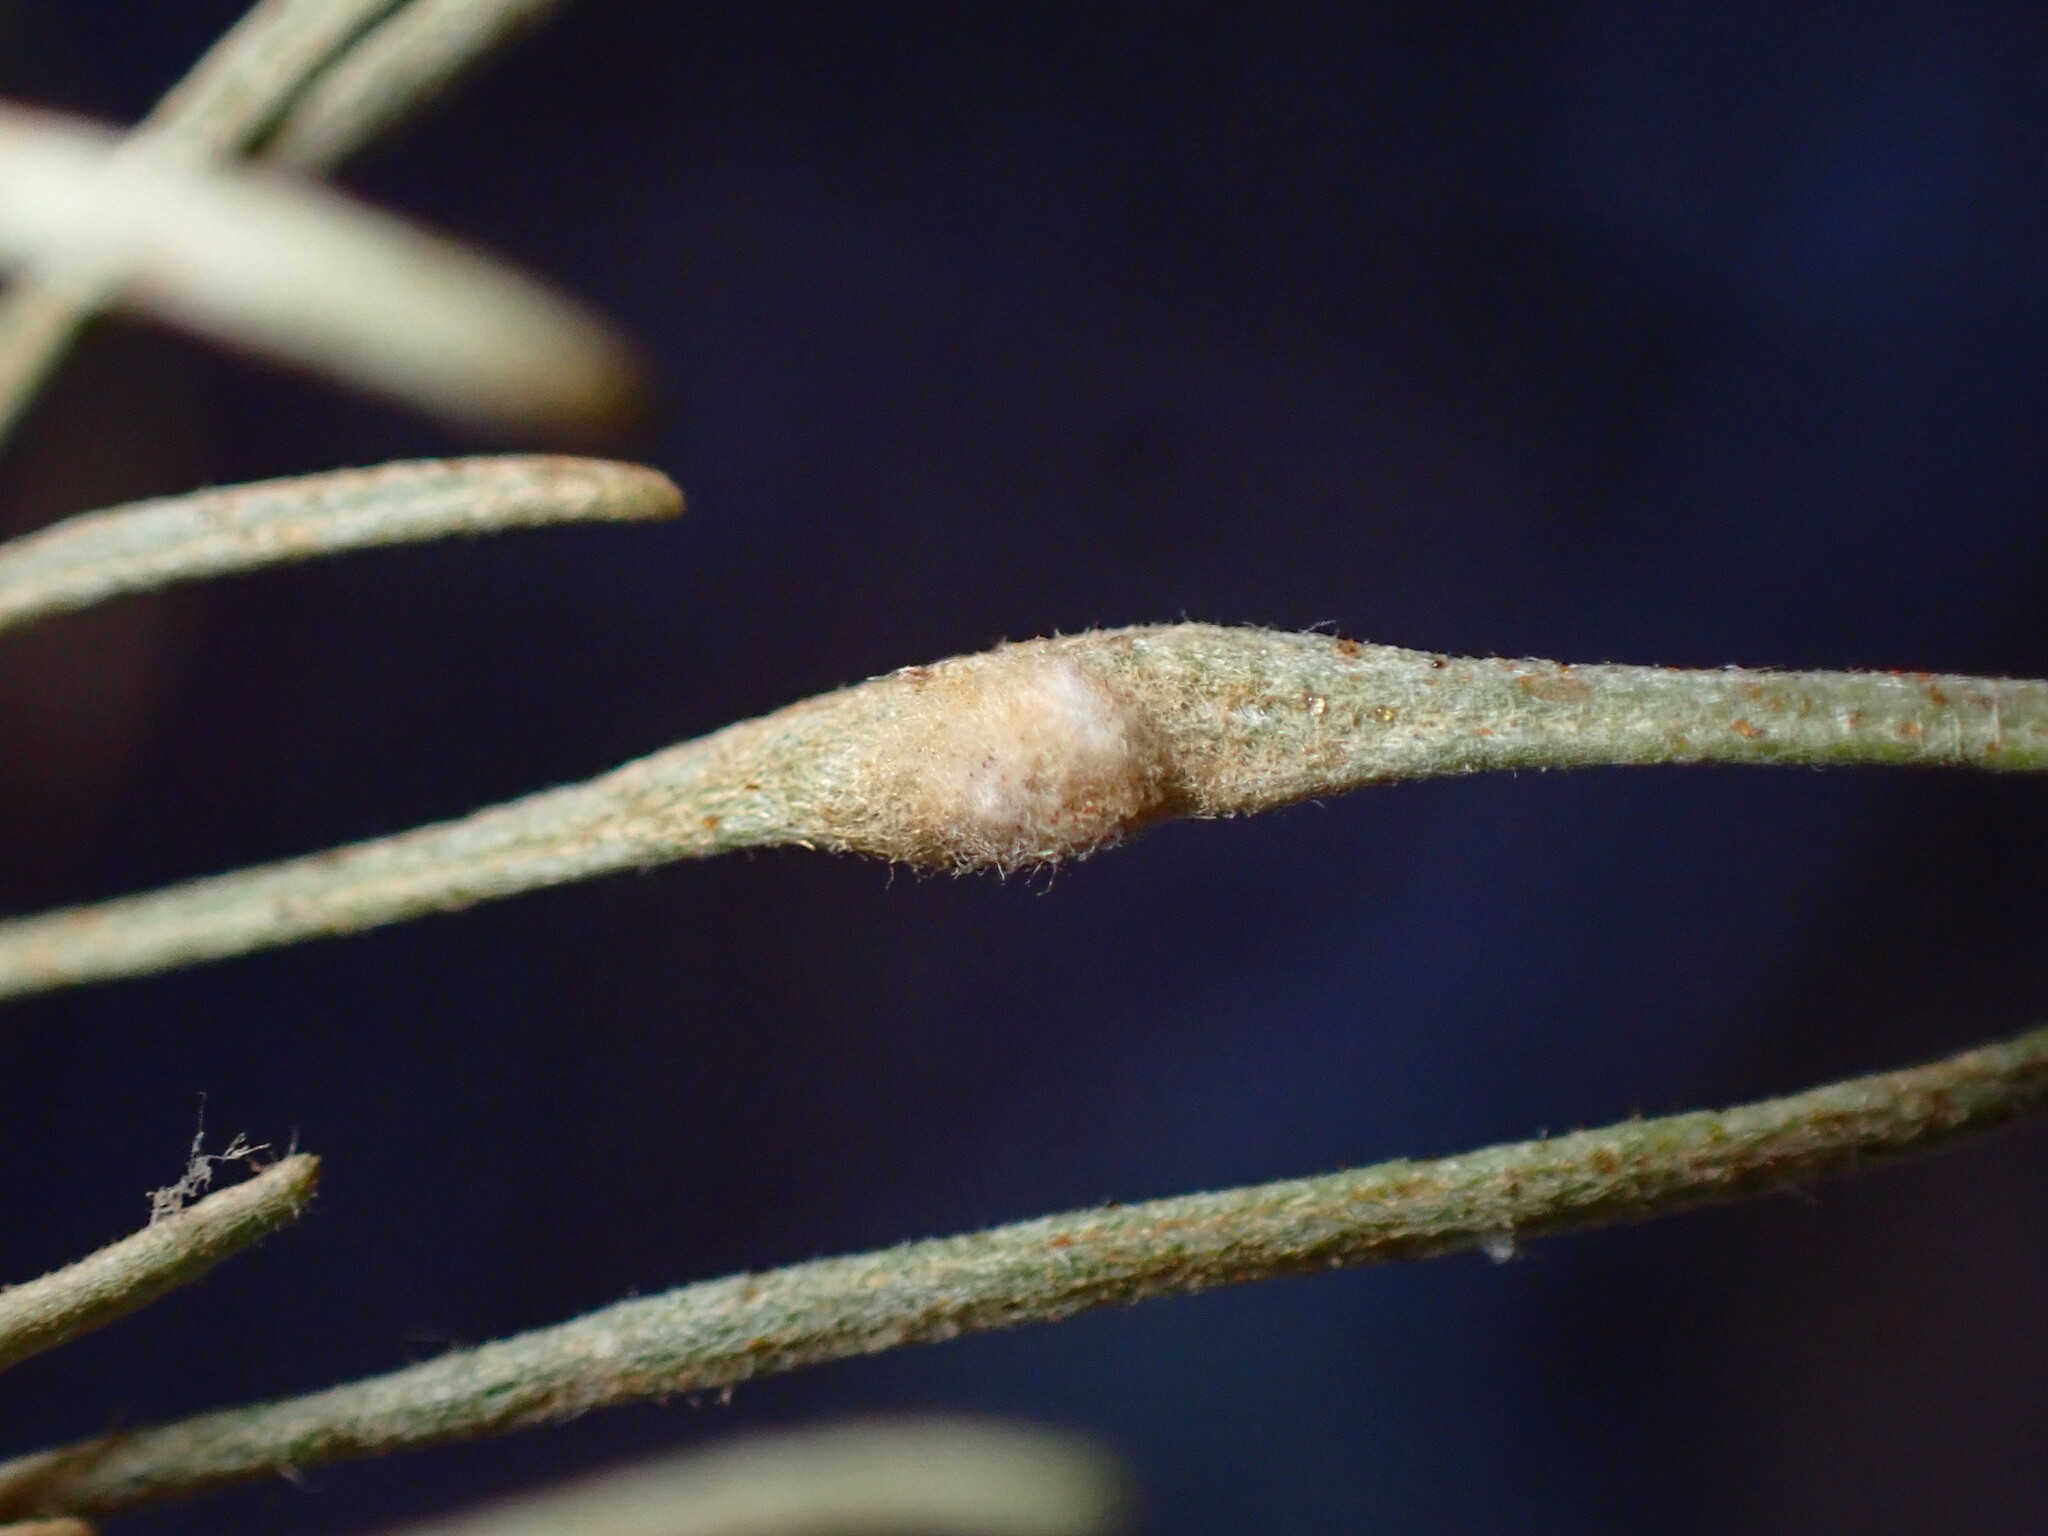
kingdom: Animalia
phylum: Arthropoda
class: Arachnida
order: Trombidiformes
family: Eriophyidae
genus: Aceria
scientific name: Aceria
